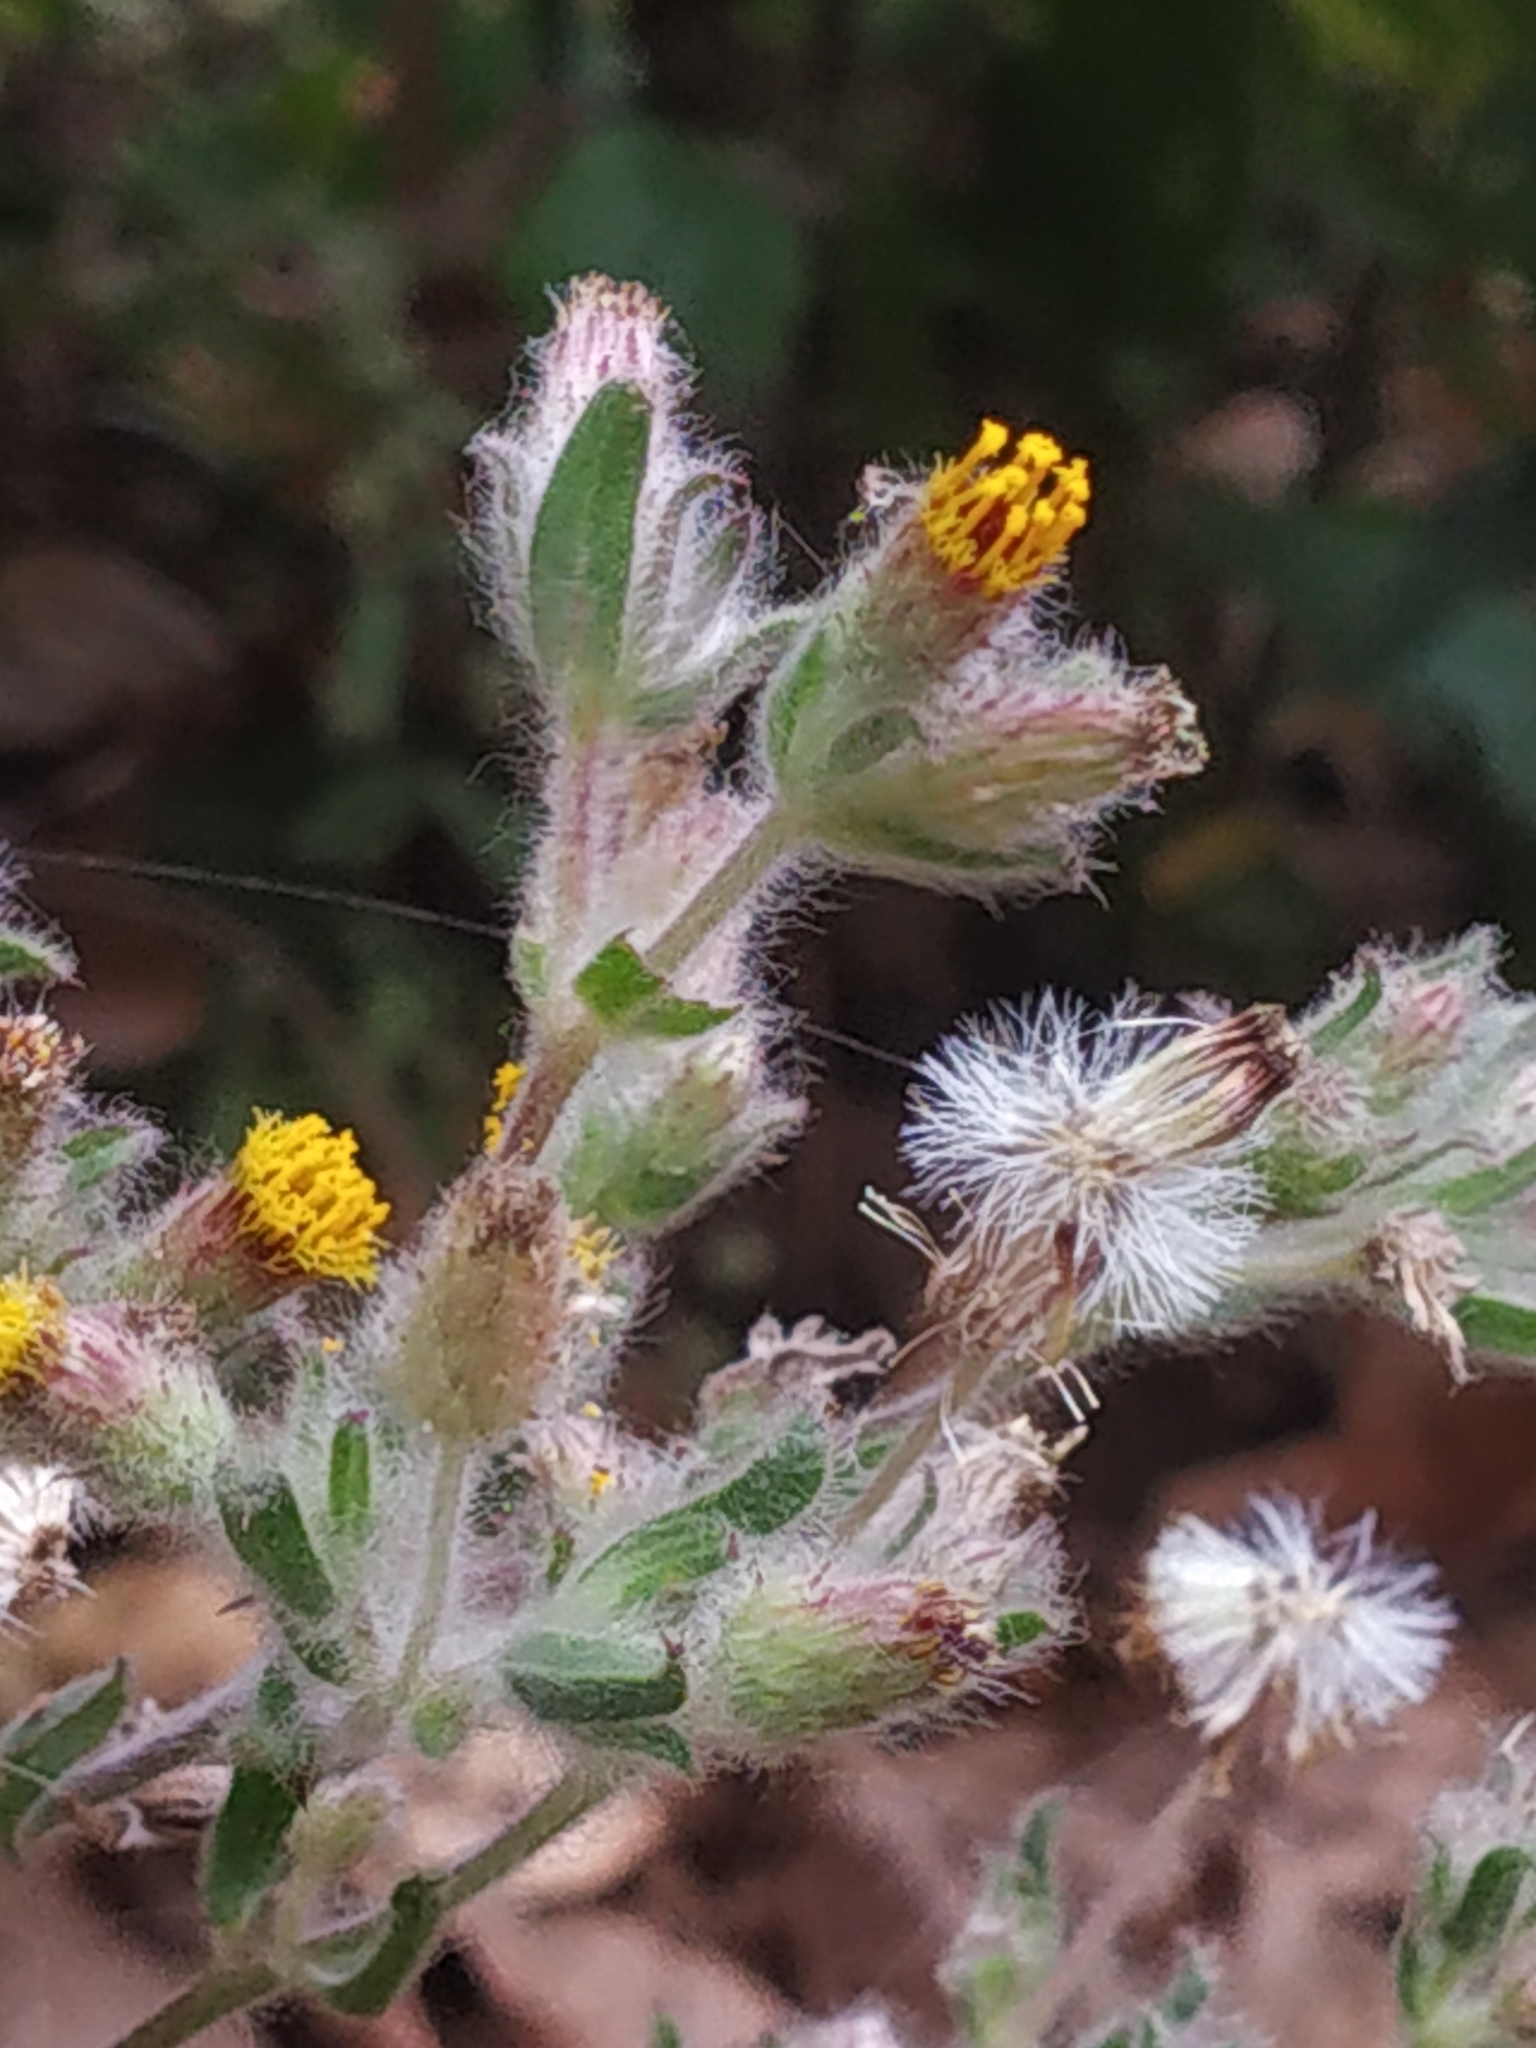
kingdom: Plantae
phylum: Tracheophyta
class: Magnoliopsida
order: Asterales
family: Asteraceae
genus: Blumea
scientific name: Blumea belangeriana
